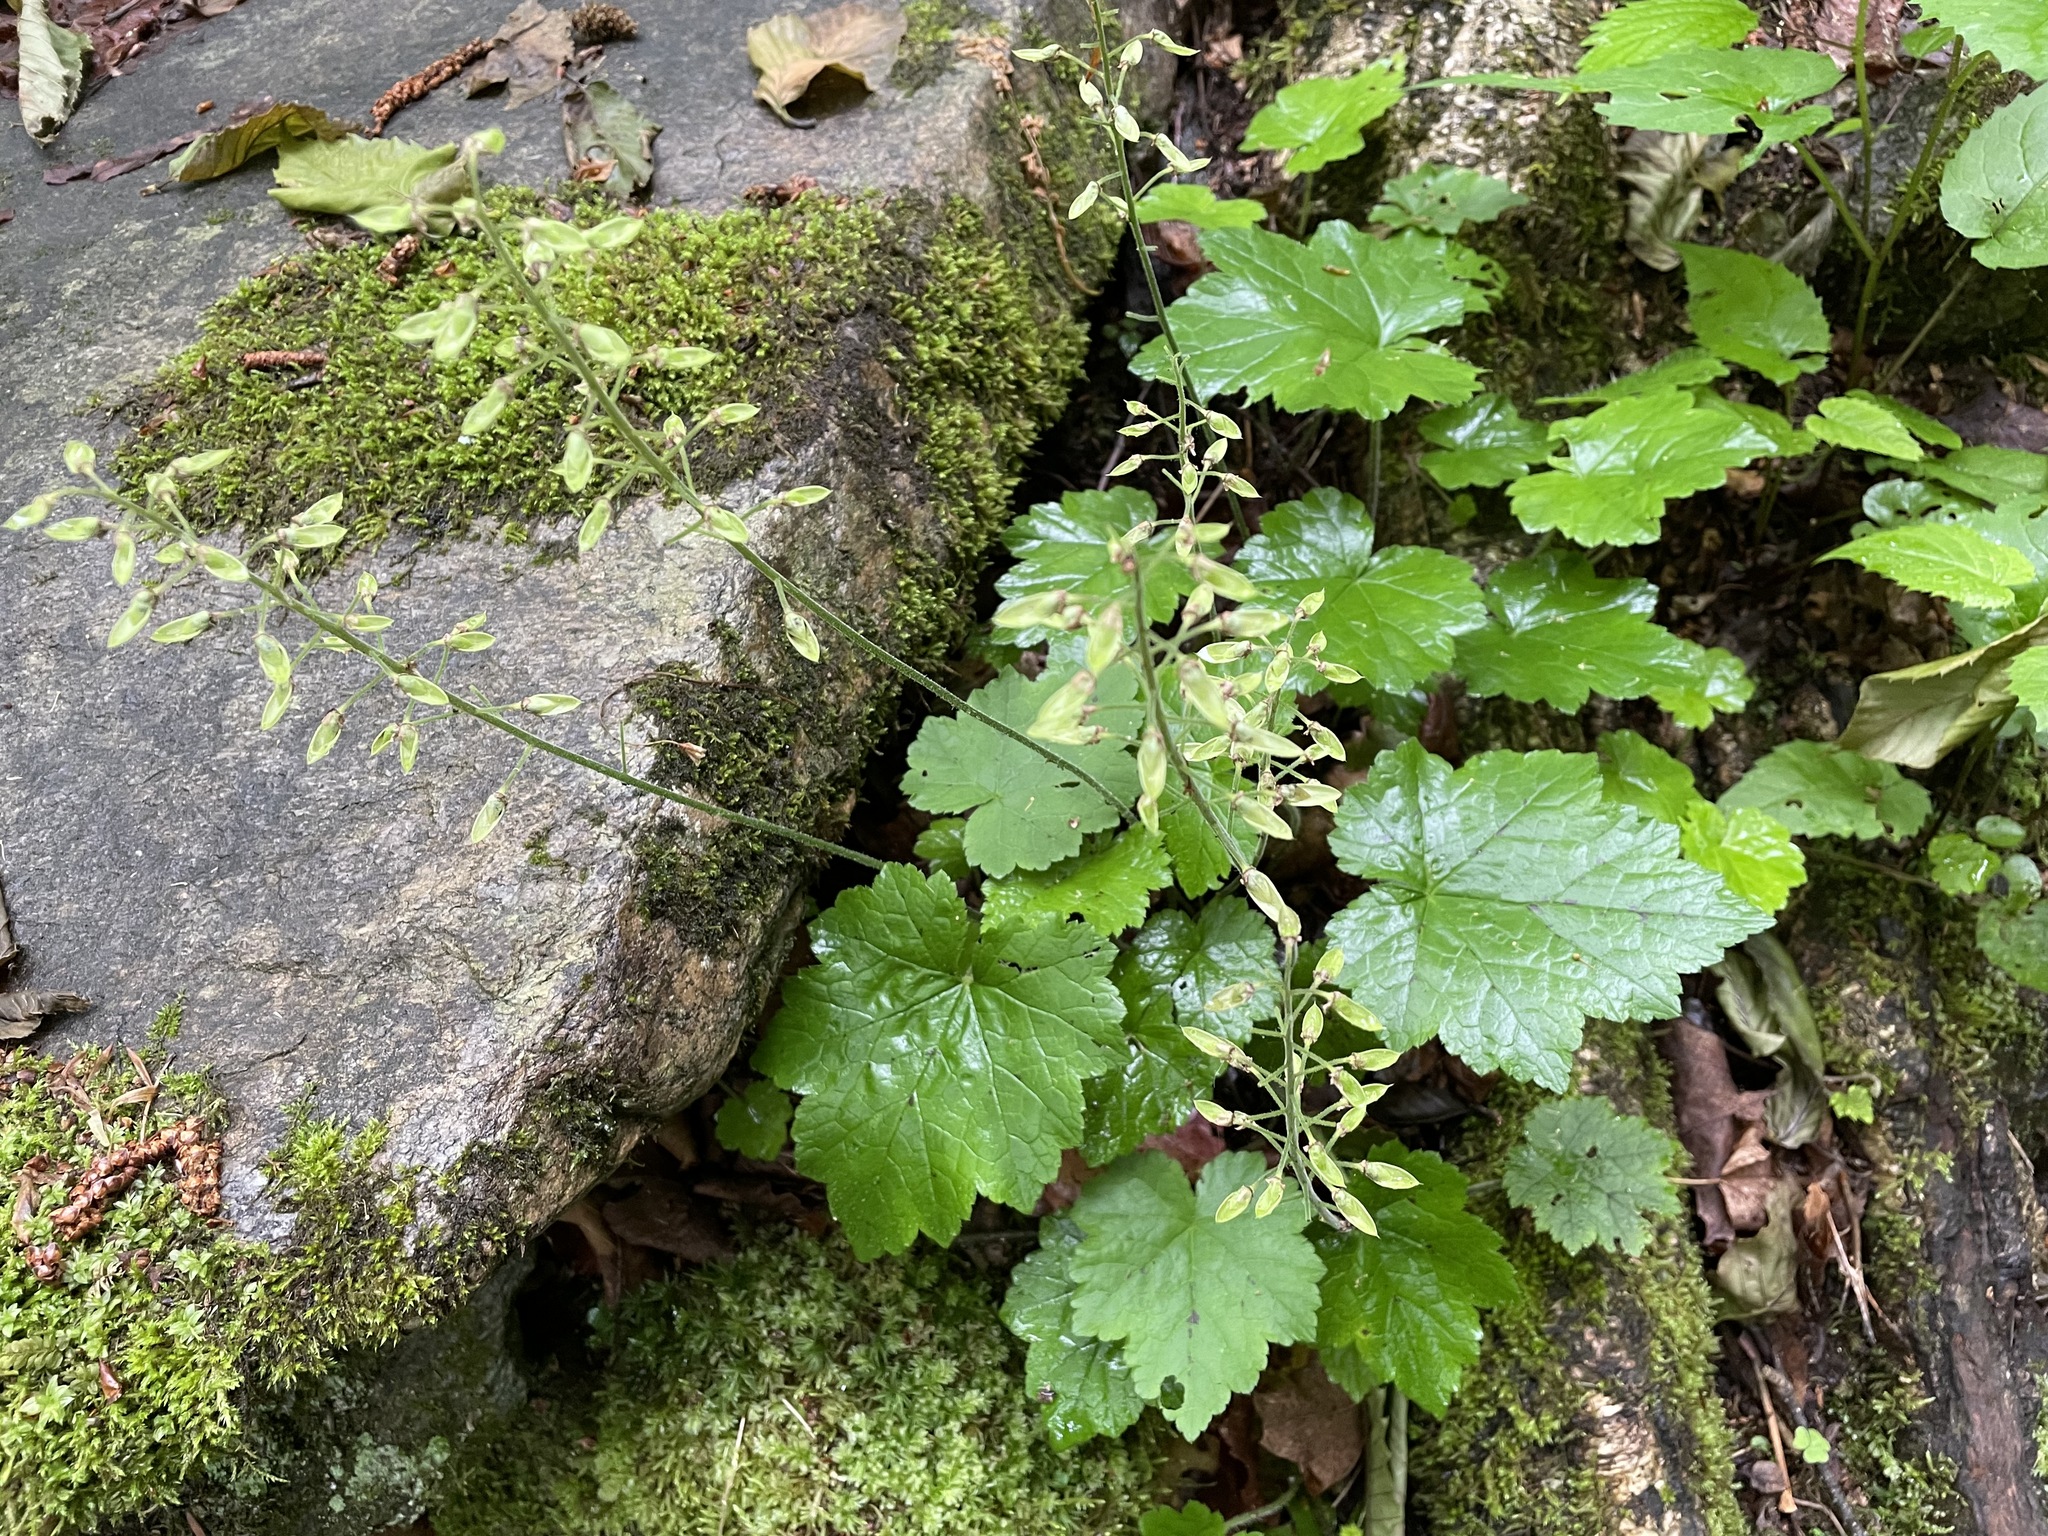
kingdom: Plantae
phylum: Tracheophyta
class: Magnoliopsida
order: Saxifragales
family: Saxifragaceae
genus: Tiarella
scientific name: Tiarella stolonifera
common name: Stoloniferous foamflower
